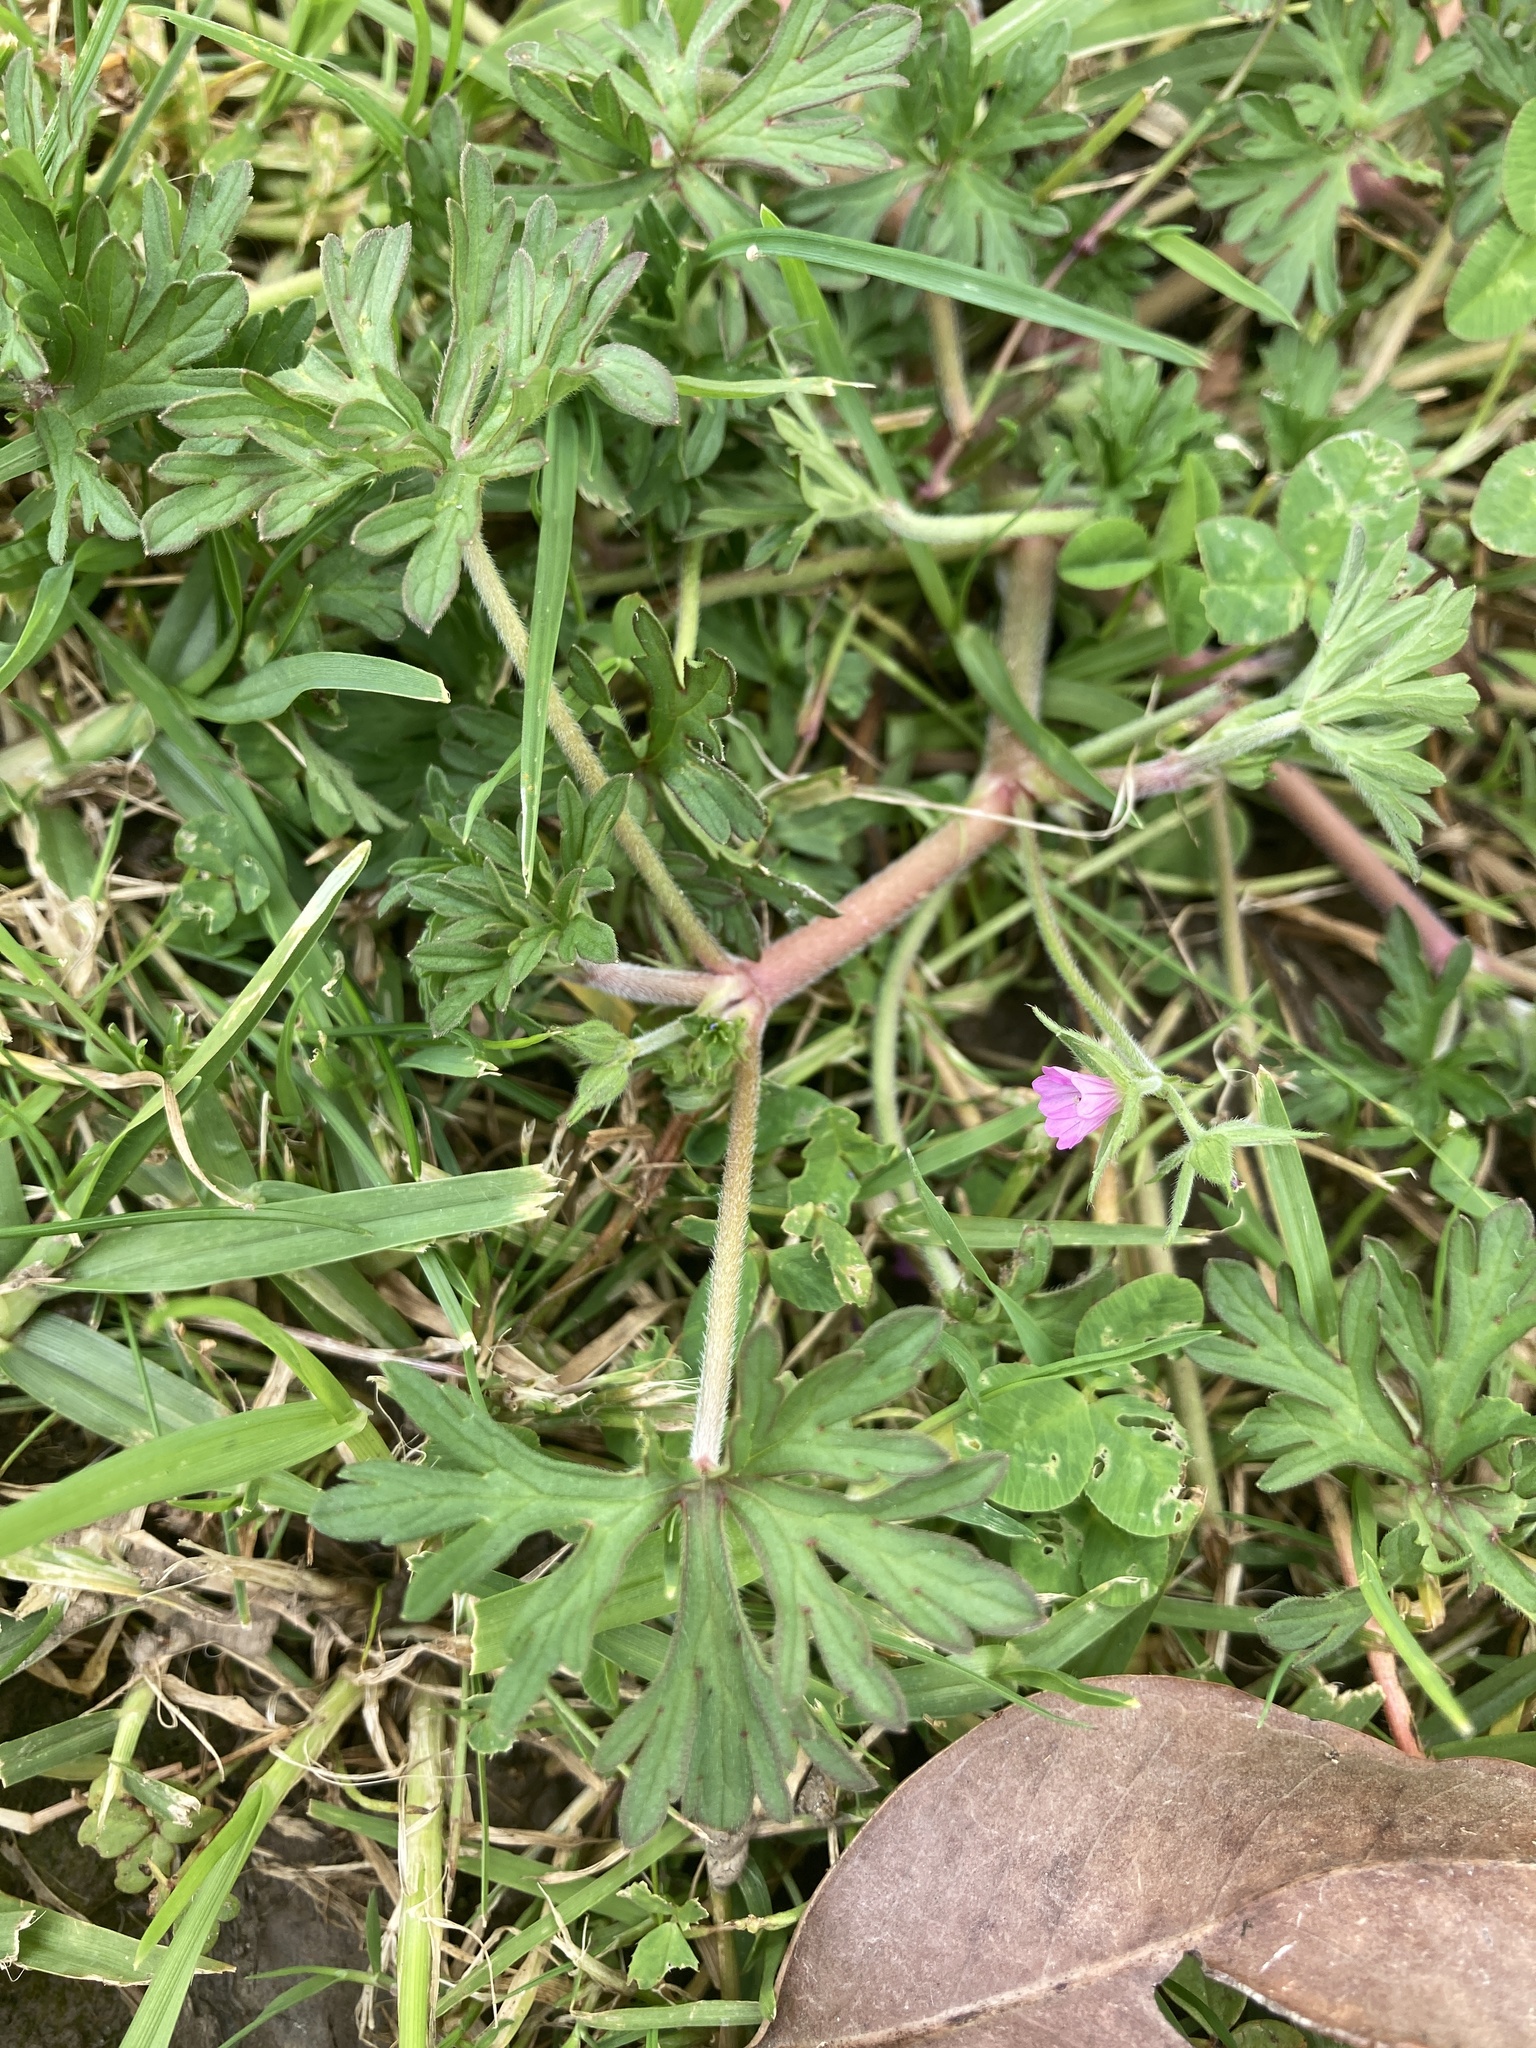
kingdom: Plantae
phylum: Tracheophyta
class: Magnoliopsida
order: Geraniales
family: Geraniaceae
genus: Geranium
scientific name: Geranium dissectum
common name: Cut-leaved crane's-bill
